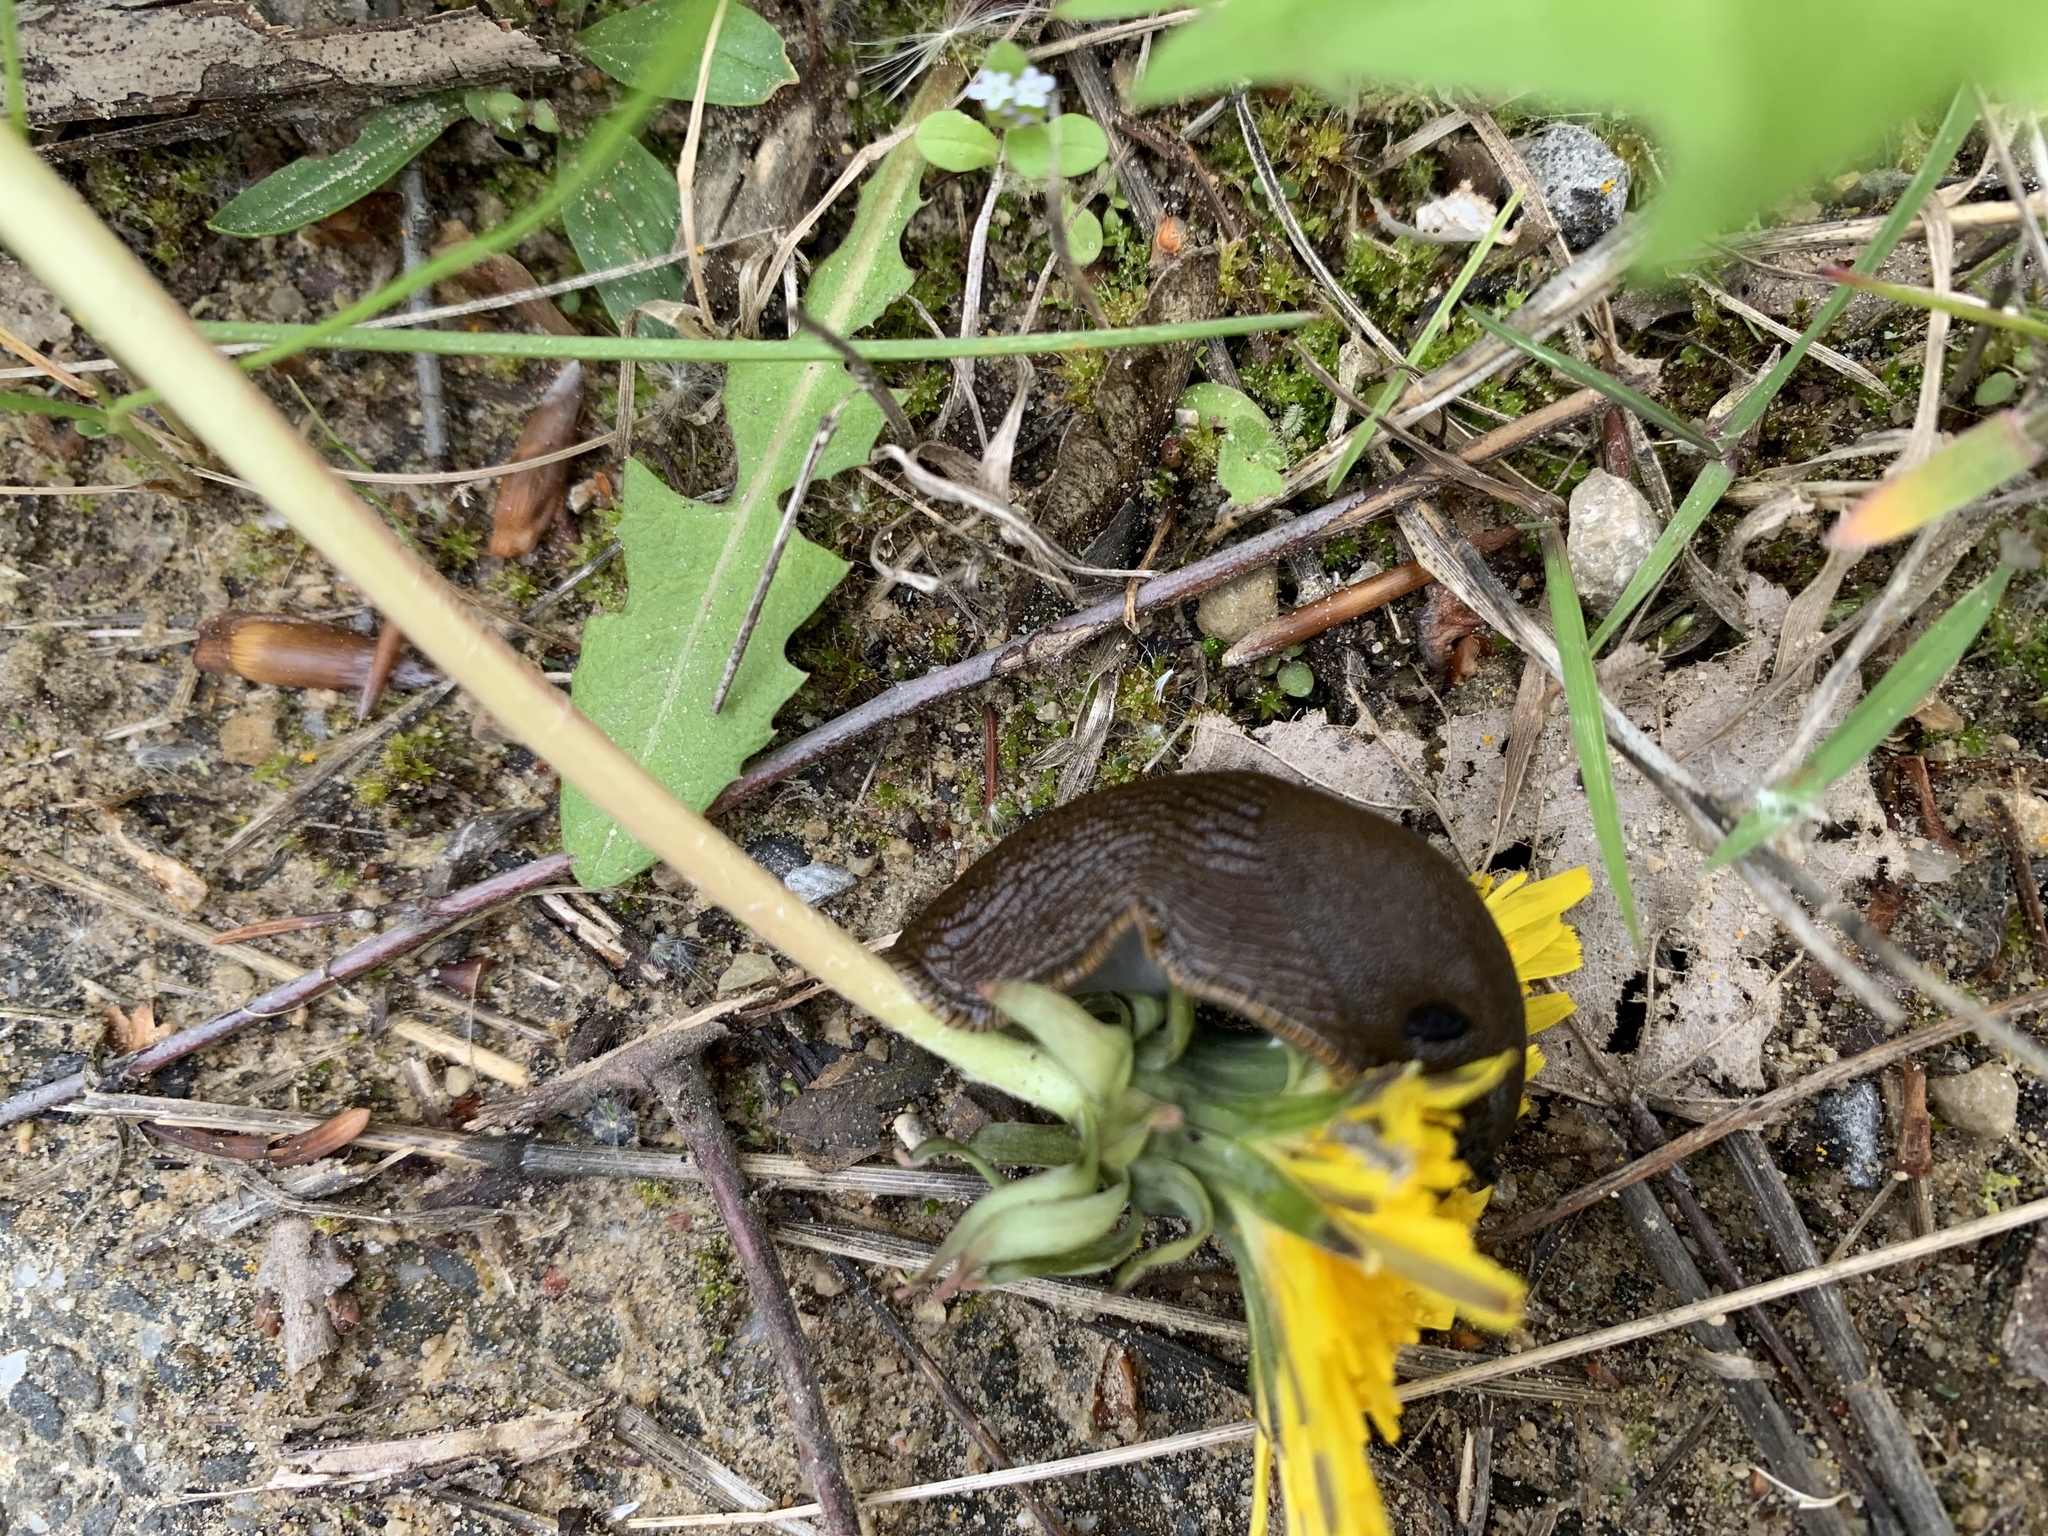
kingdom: Animalia
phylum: Mollusca
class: Gastropoda
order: Stylommatophora
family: Arionidae
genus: Arion
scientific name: Arion rufus
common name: Chocolate arion
